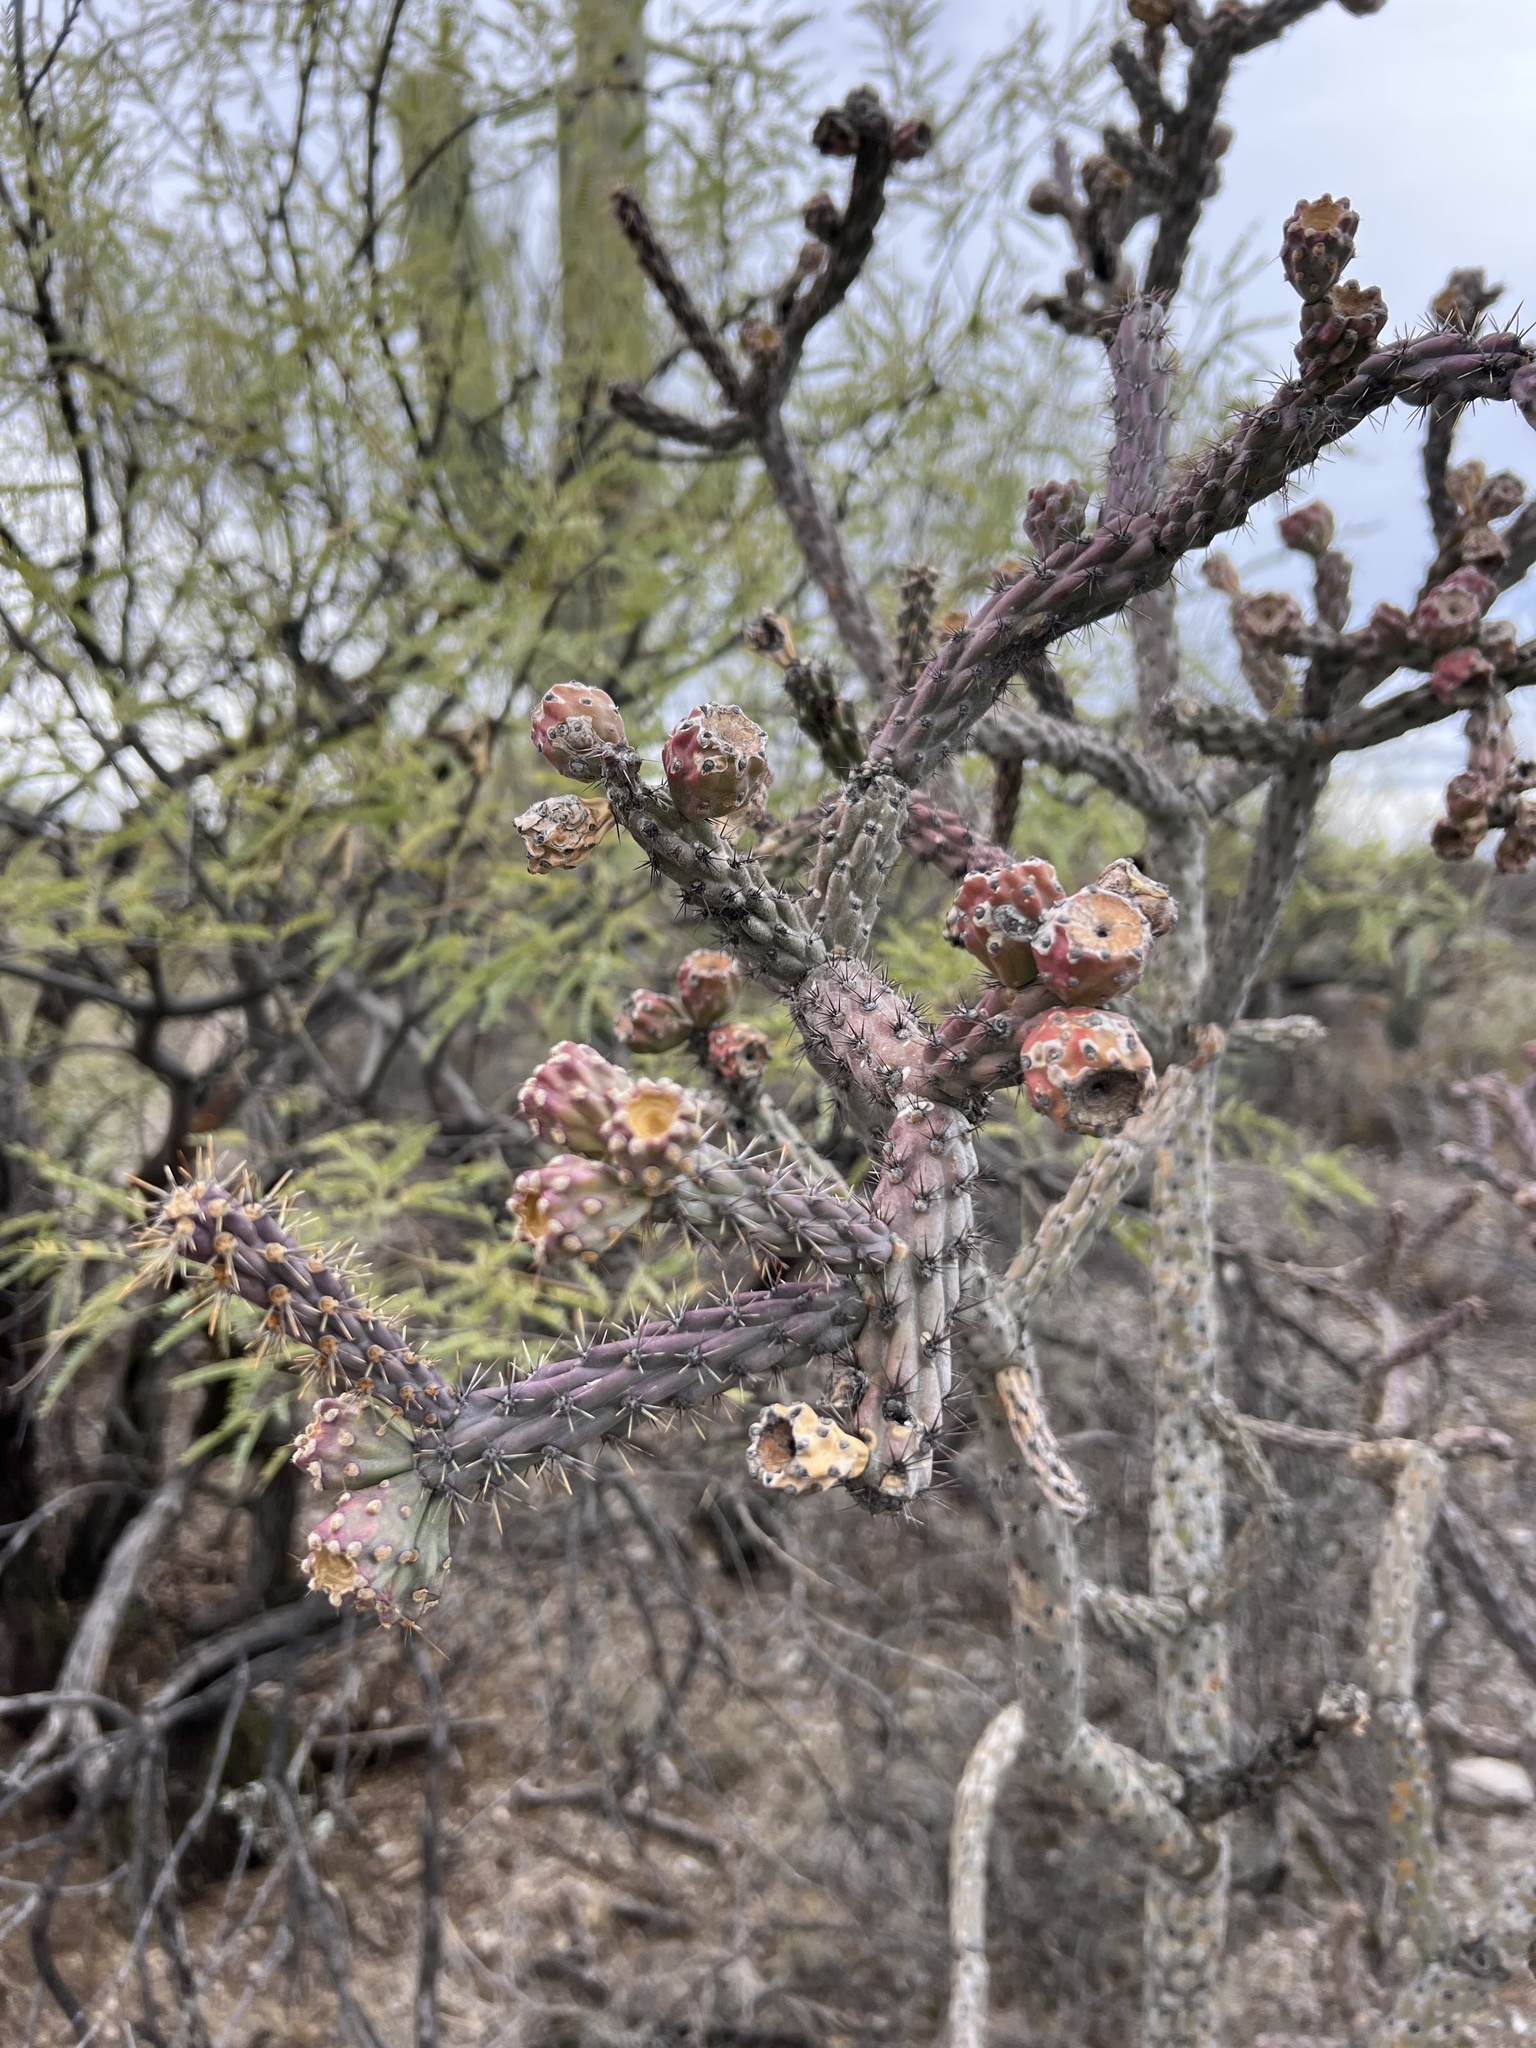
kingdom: Plantae
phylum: Tracheophyta
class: Magnoliopsida
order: Caryophyllales
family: Cactaceae
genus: Cylindropuntia
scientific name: Cylindropuntia thurberi
